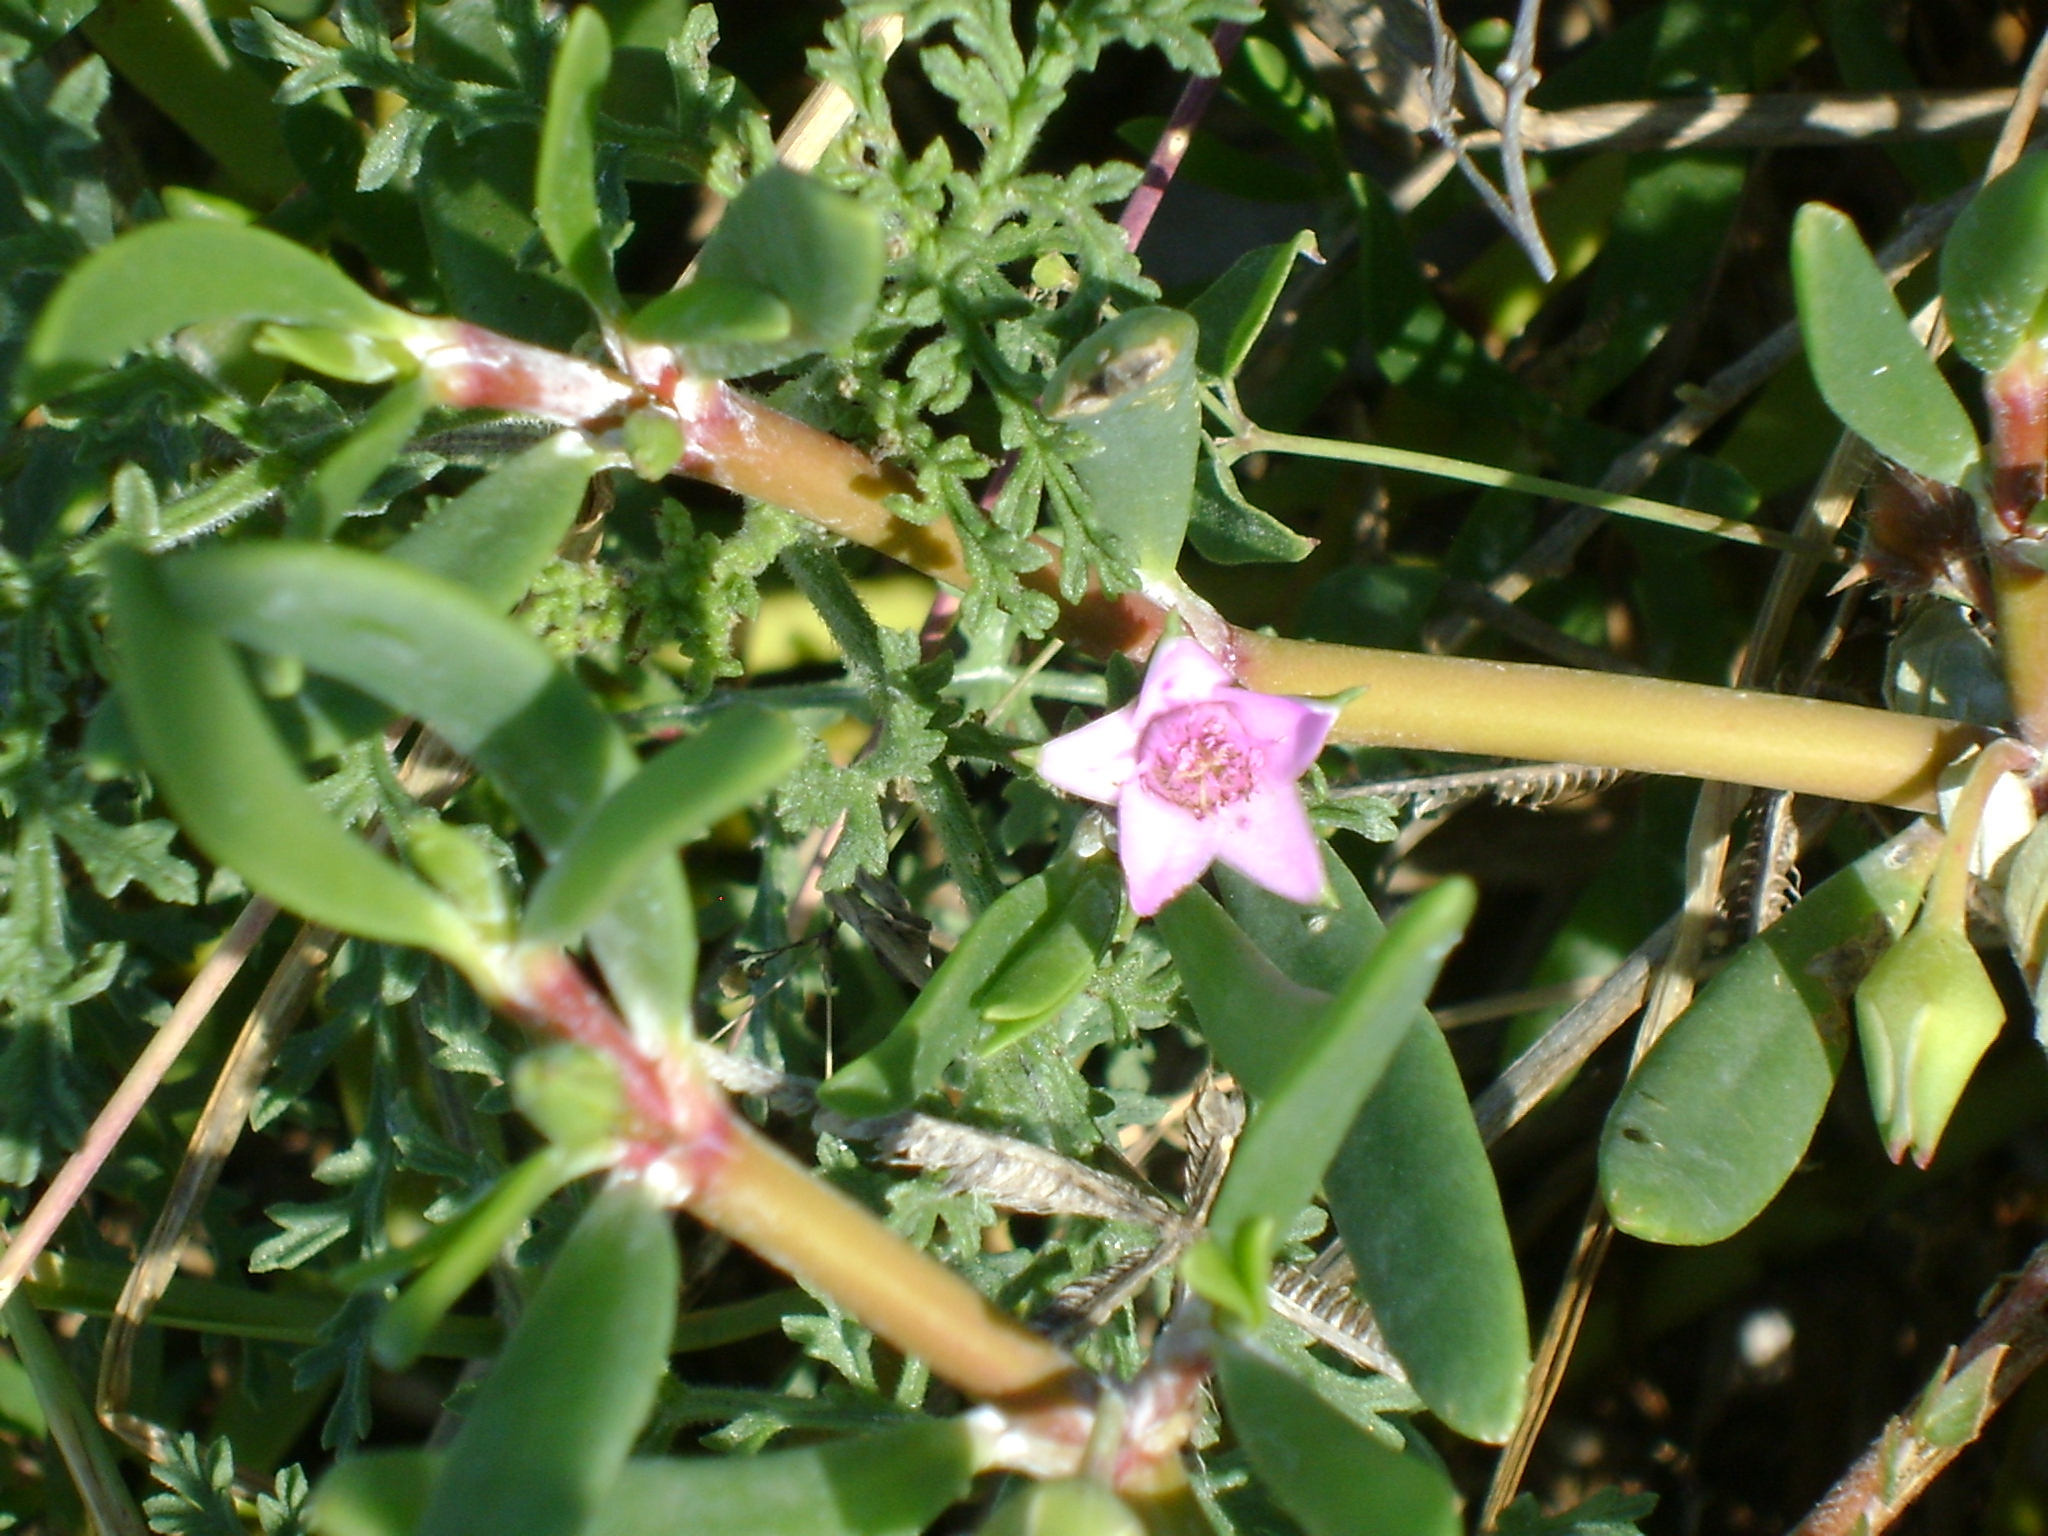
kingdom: Plantae
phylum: Tracheophyta
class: Magnoliopsida
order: Caryophyllales
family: Aizoaceae
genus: Sesuvium
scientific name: Sesuvium portulacastrum
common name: Sea-purslane
